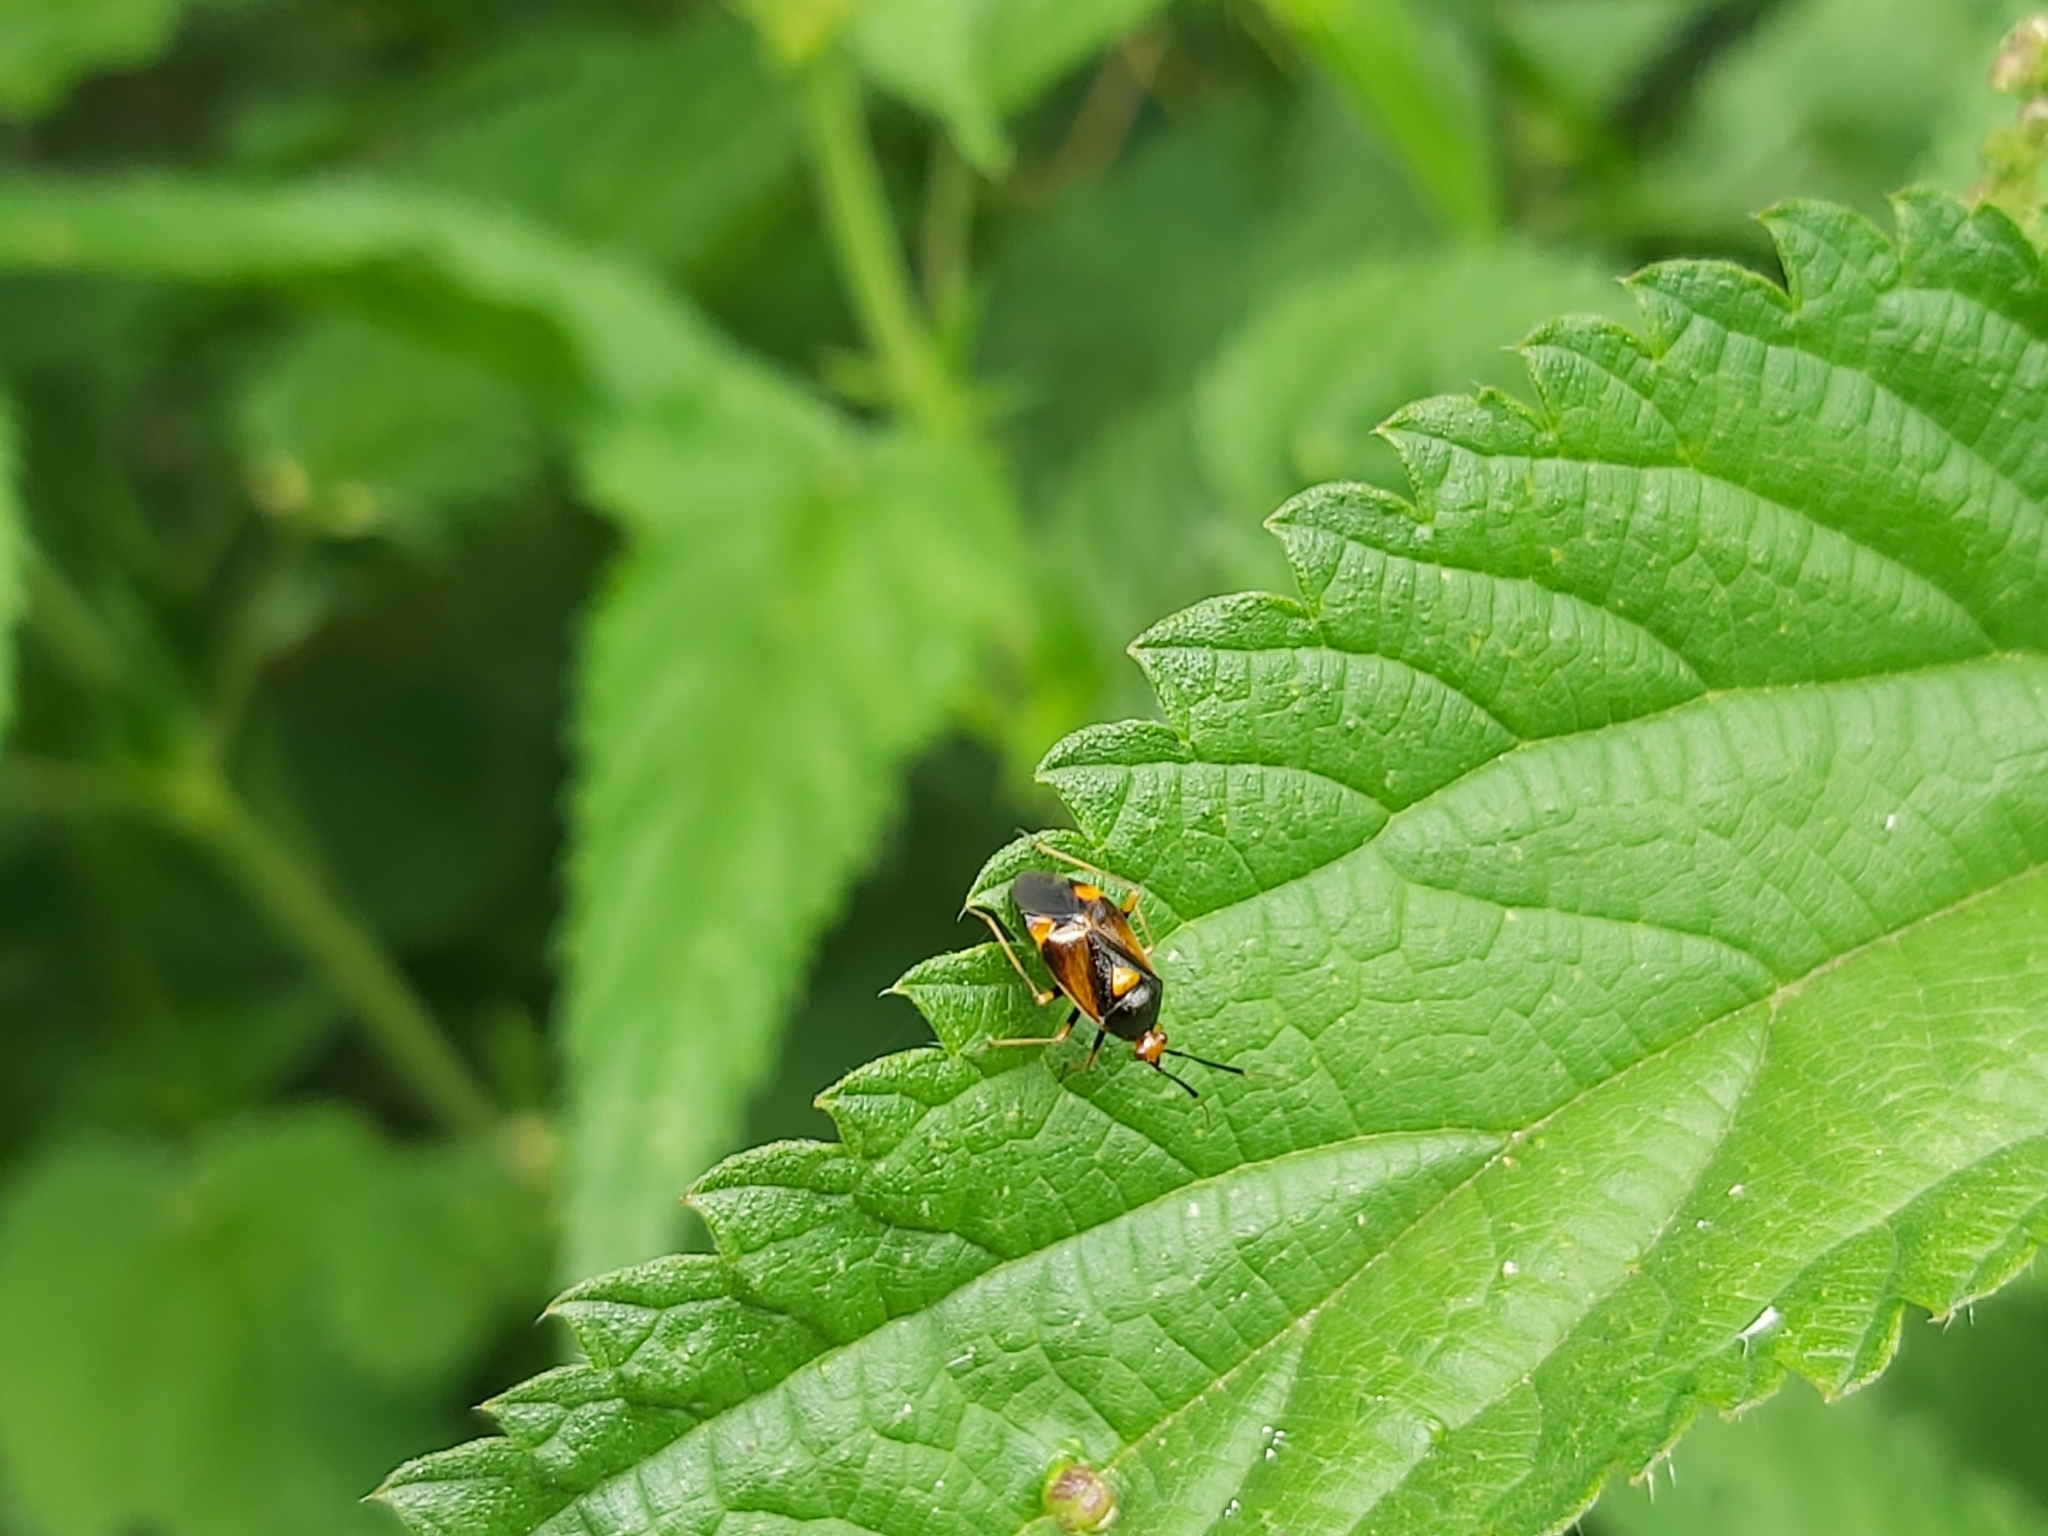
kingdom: Animalia
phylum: Arthropoda
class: Insecta
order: Hemiptera
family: Miridae
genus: Deraeocoris
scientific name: Deraeocoris ruber
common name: Plant bug
